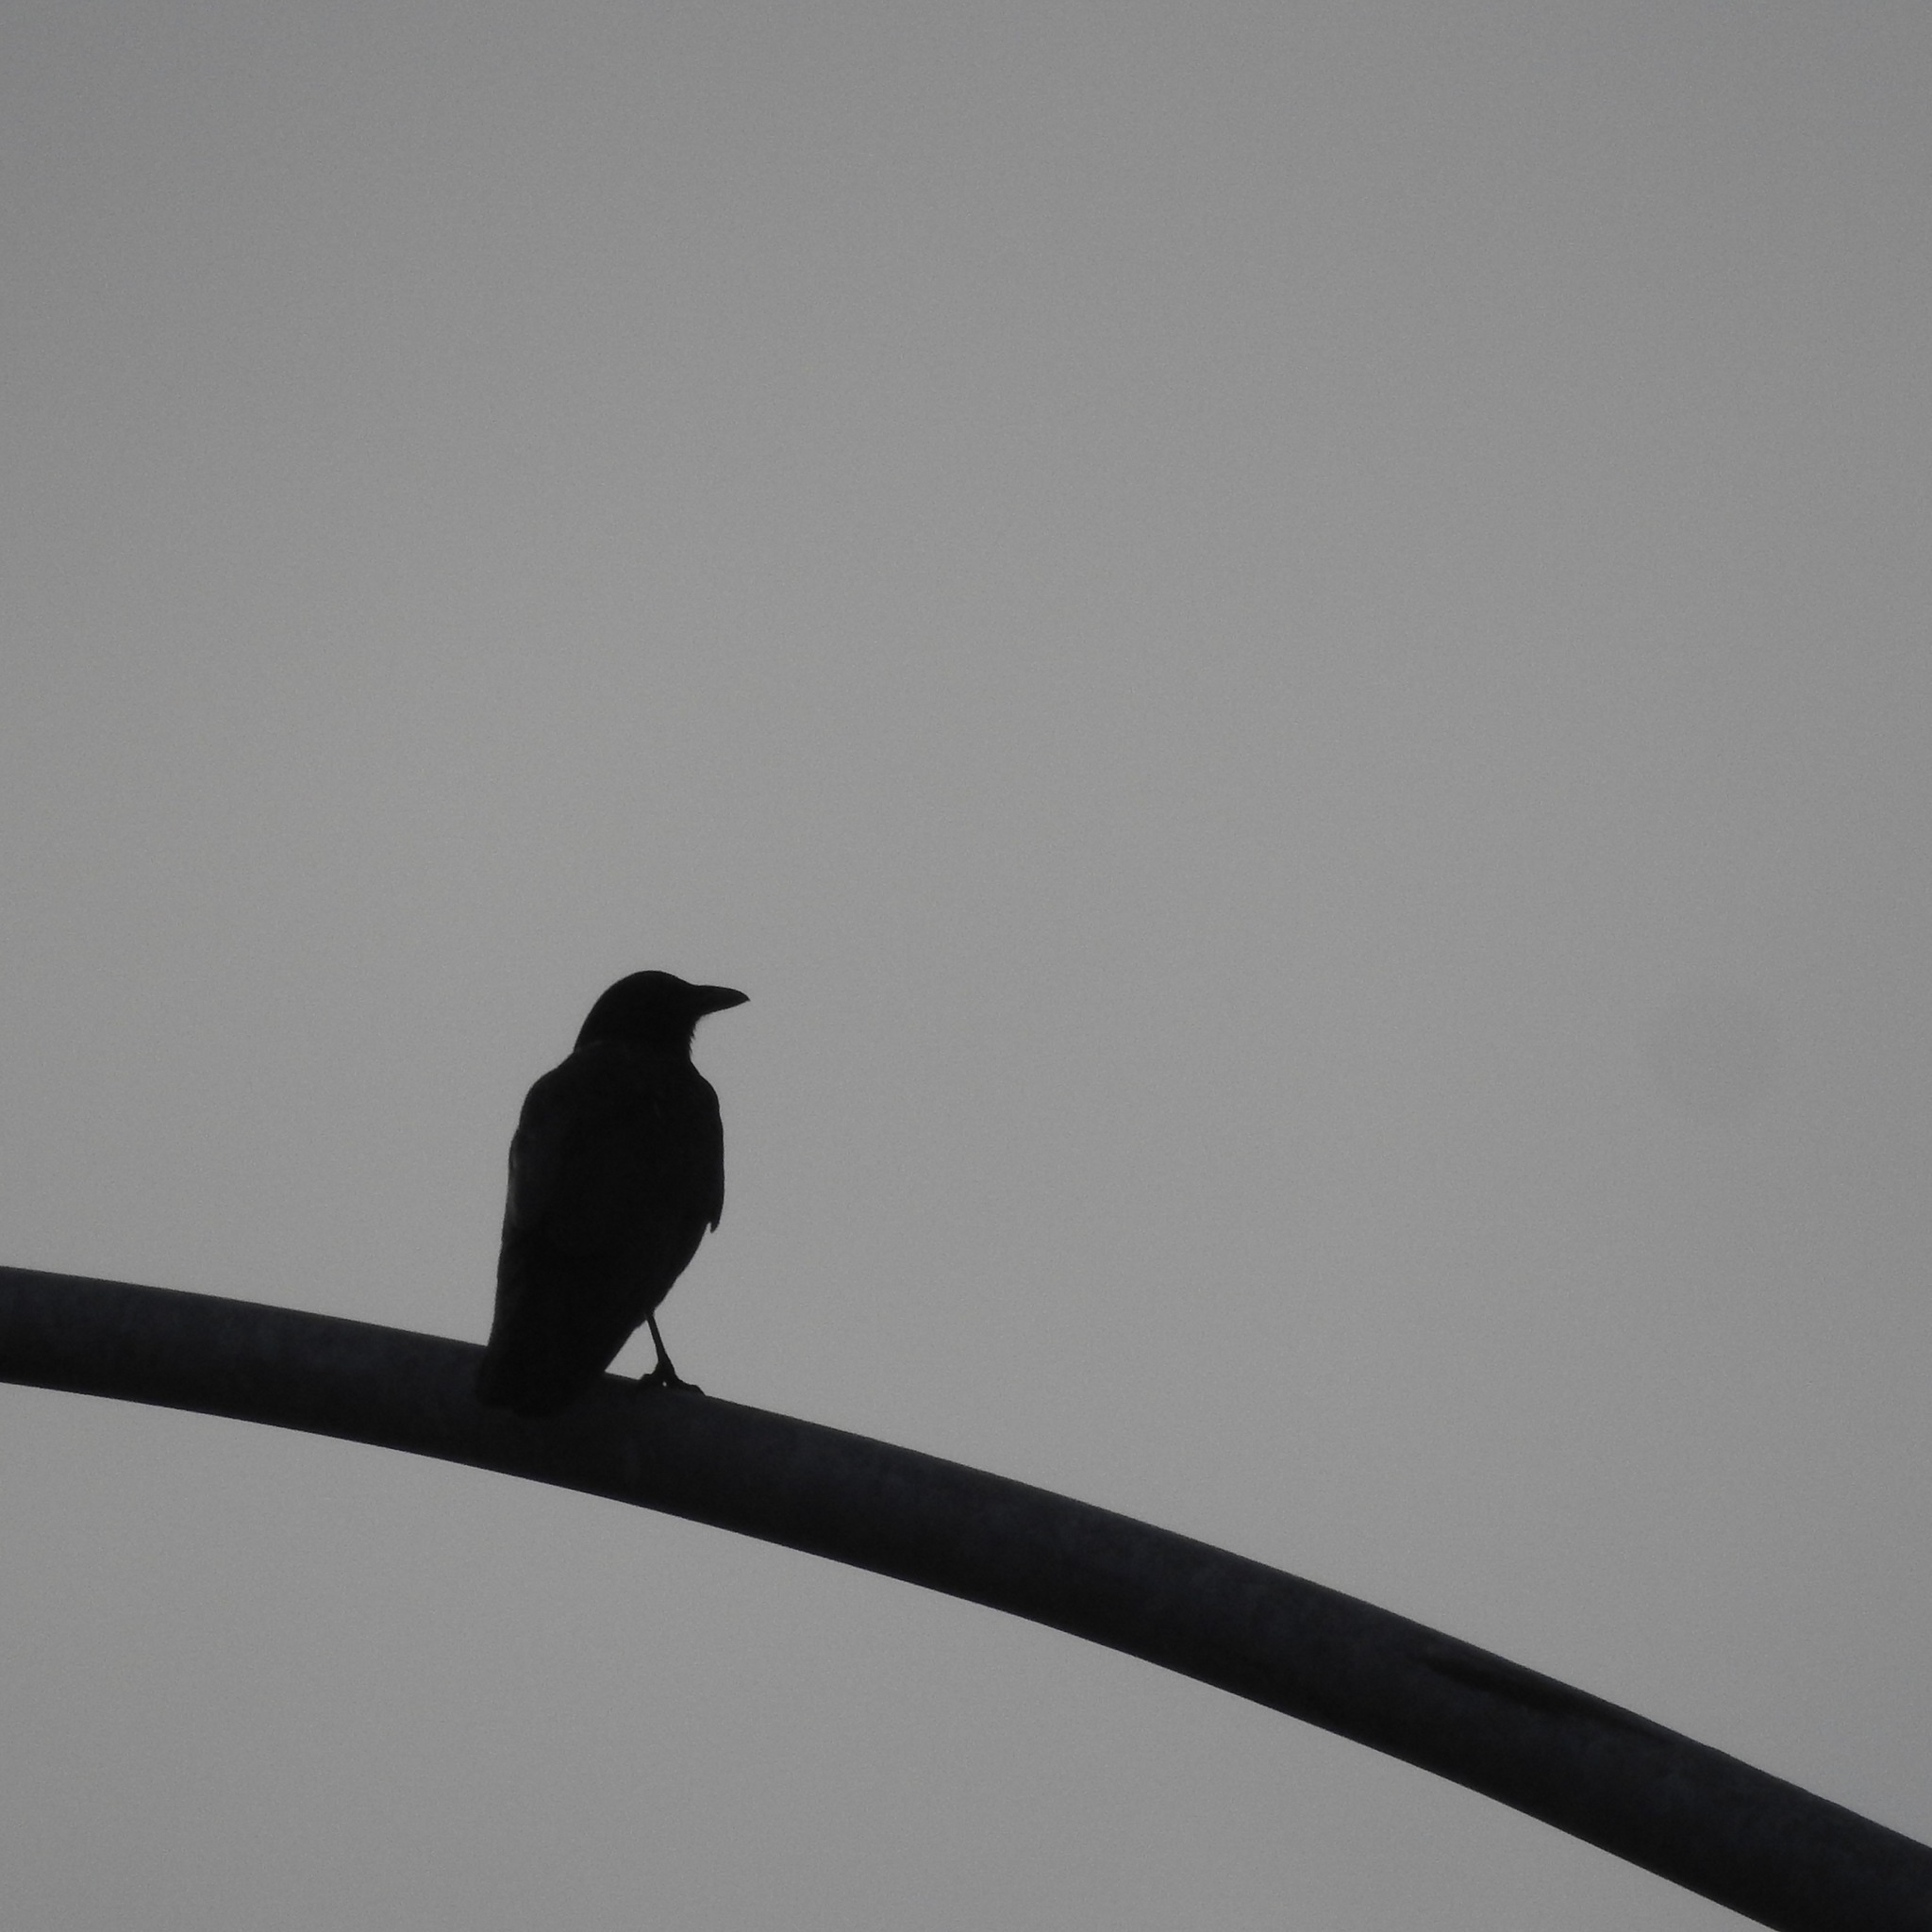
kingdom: Animalia
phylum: Chordata
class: Aves
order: Passeriformes
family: Corvidae
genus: Corvus
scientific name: Corvus brachyrhynchos
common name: American crow
